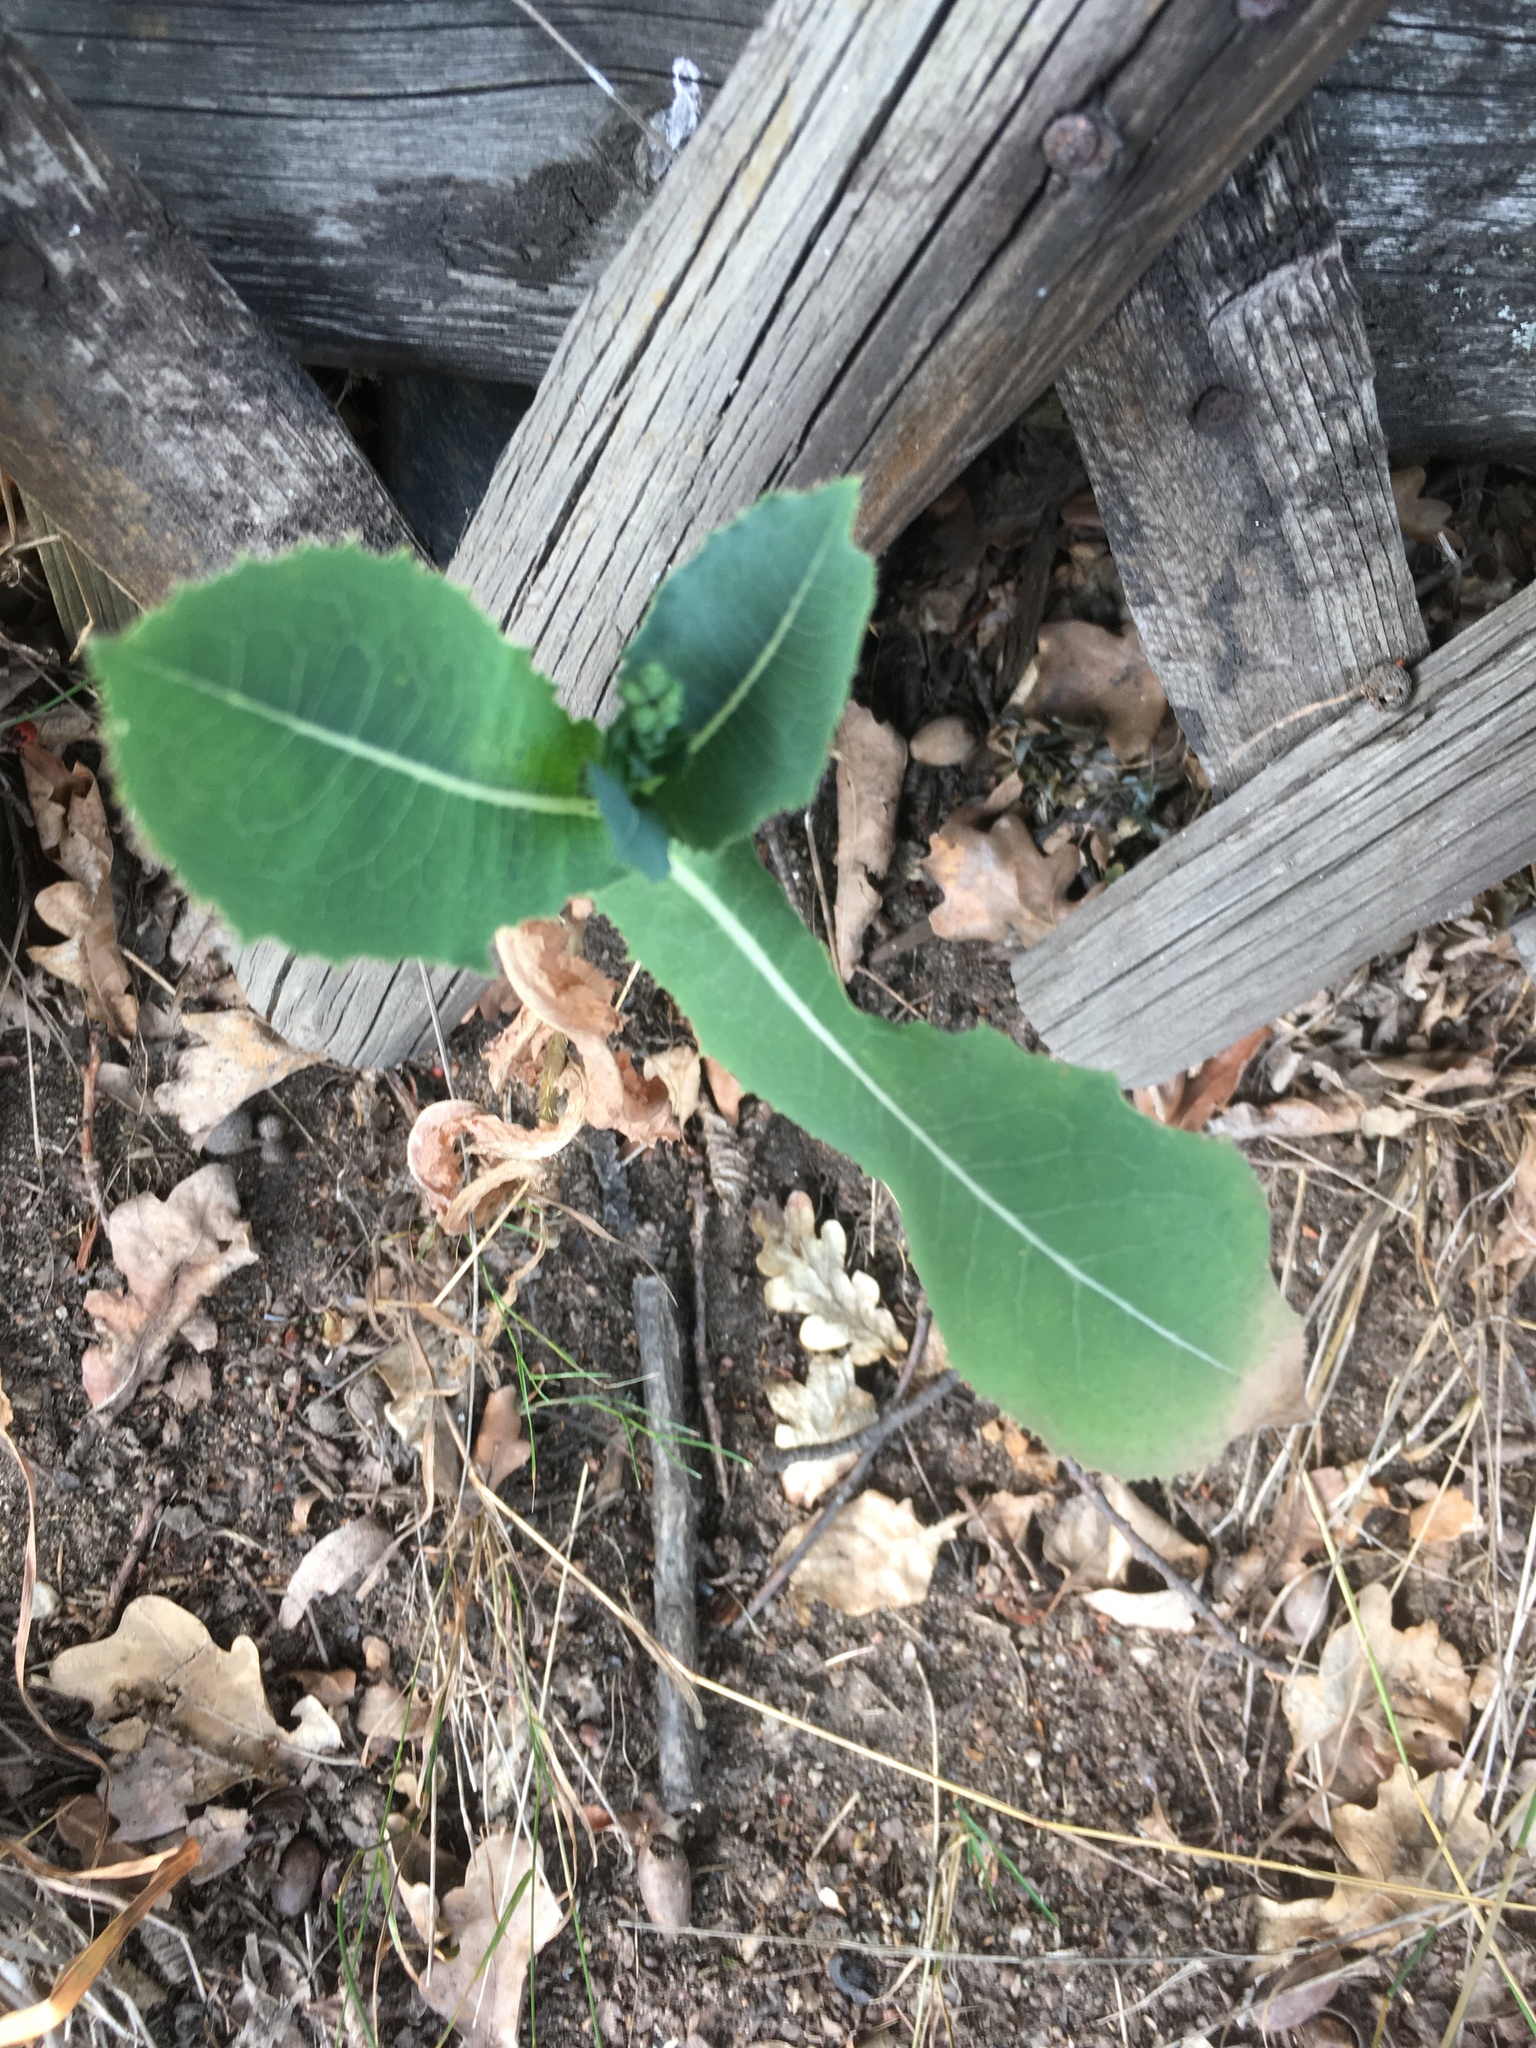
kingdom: Plantae
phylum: Tracheophyta
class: Magnoliopsida
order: Asterales
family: Asteraceae
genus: Lactuca
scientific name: Lactuca serriola
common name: Prickly lettuce
